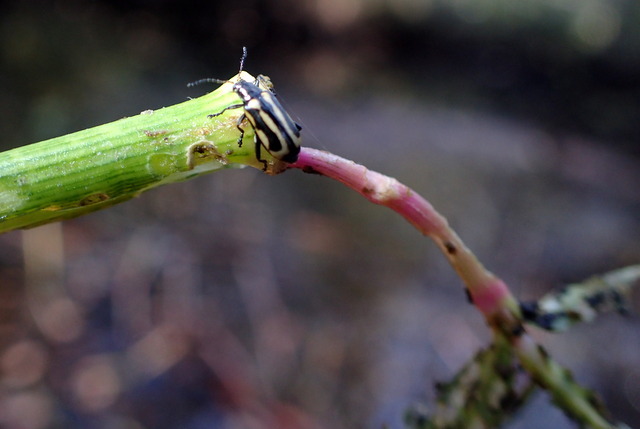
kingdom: Animalia
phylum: Arthropoda
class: Insecta
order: Coleoptera
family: Chrysomelidae
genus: Agasicles
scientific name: Agasicles hygrophila
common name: Alligatorweed flea beetle
